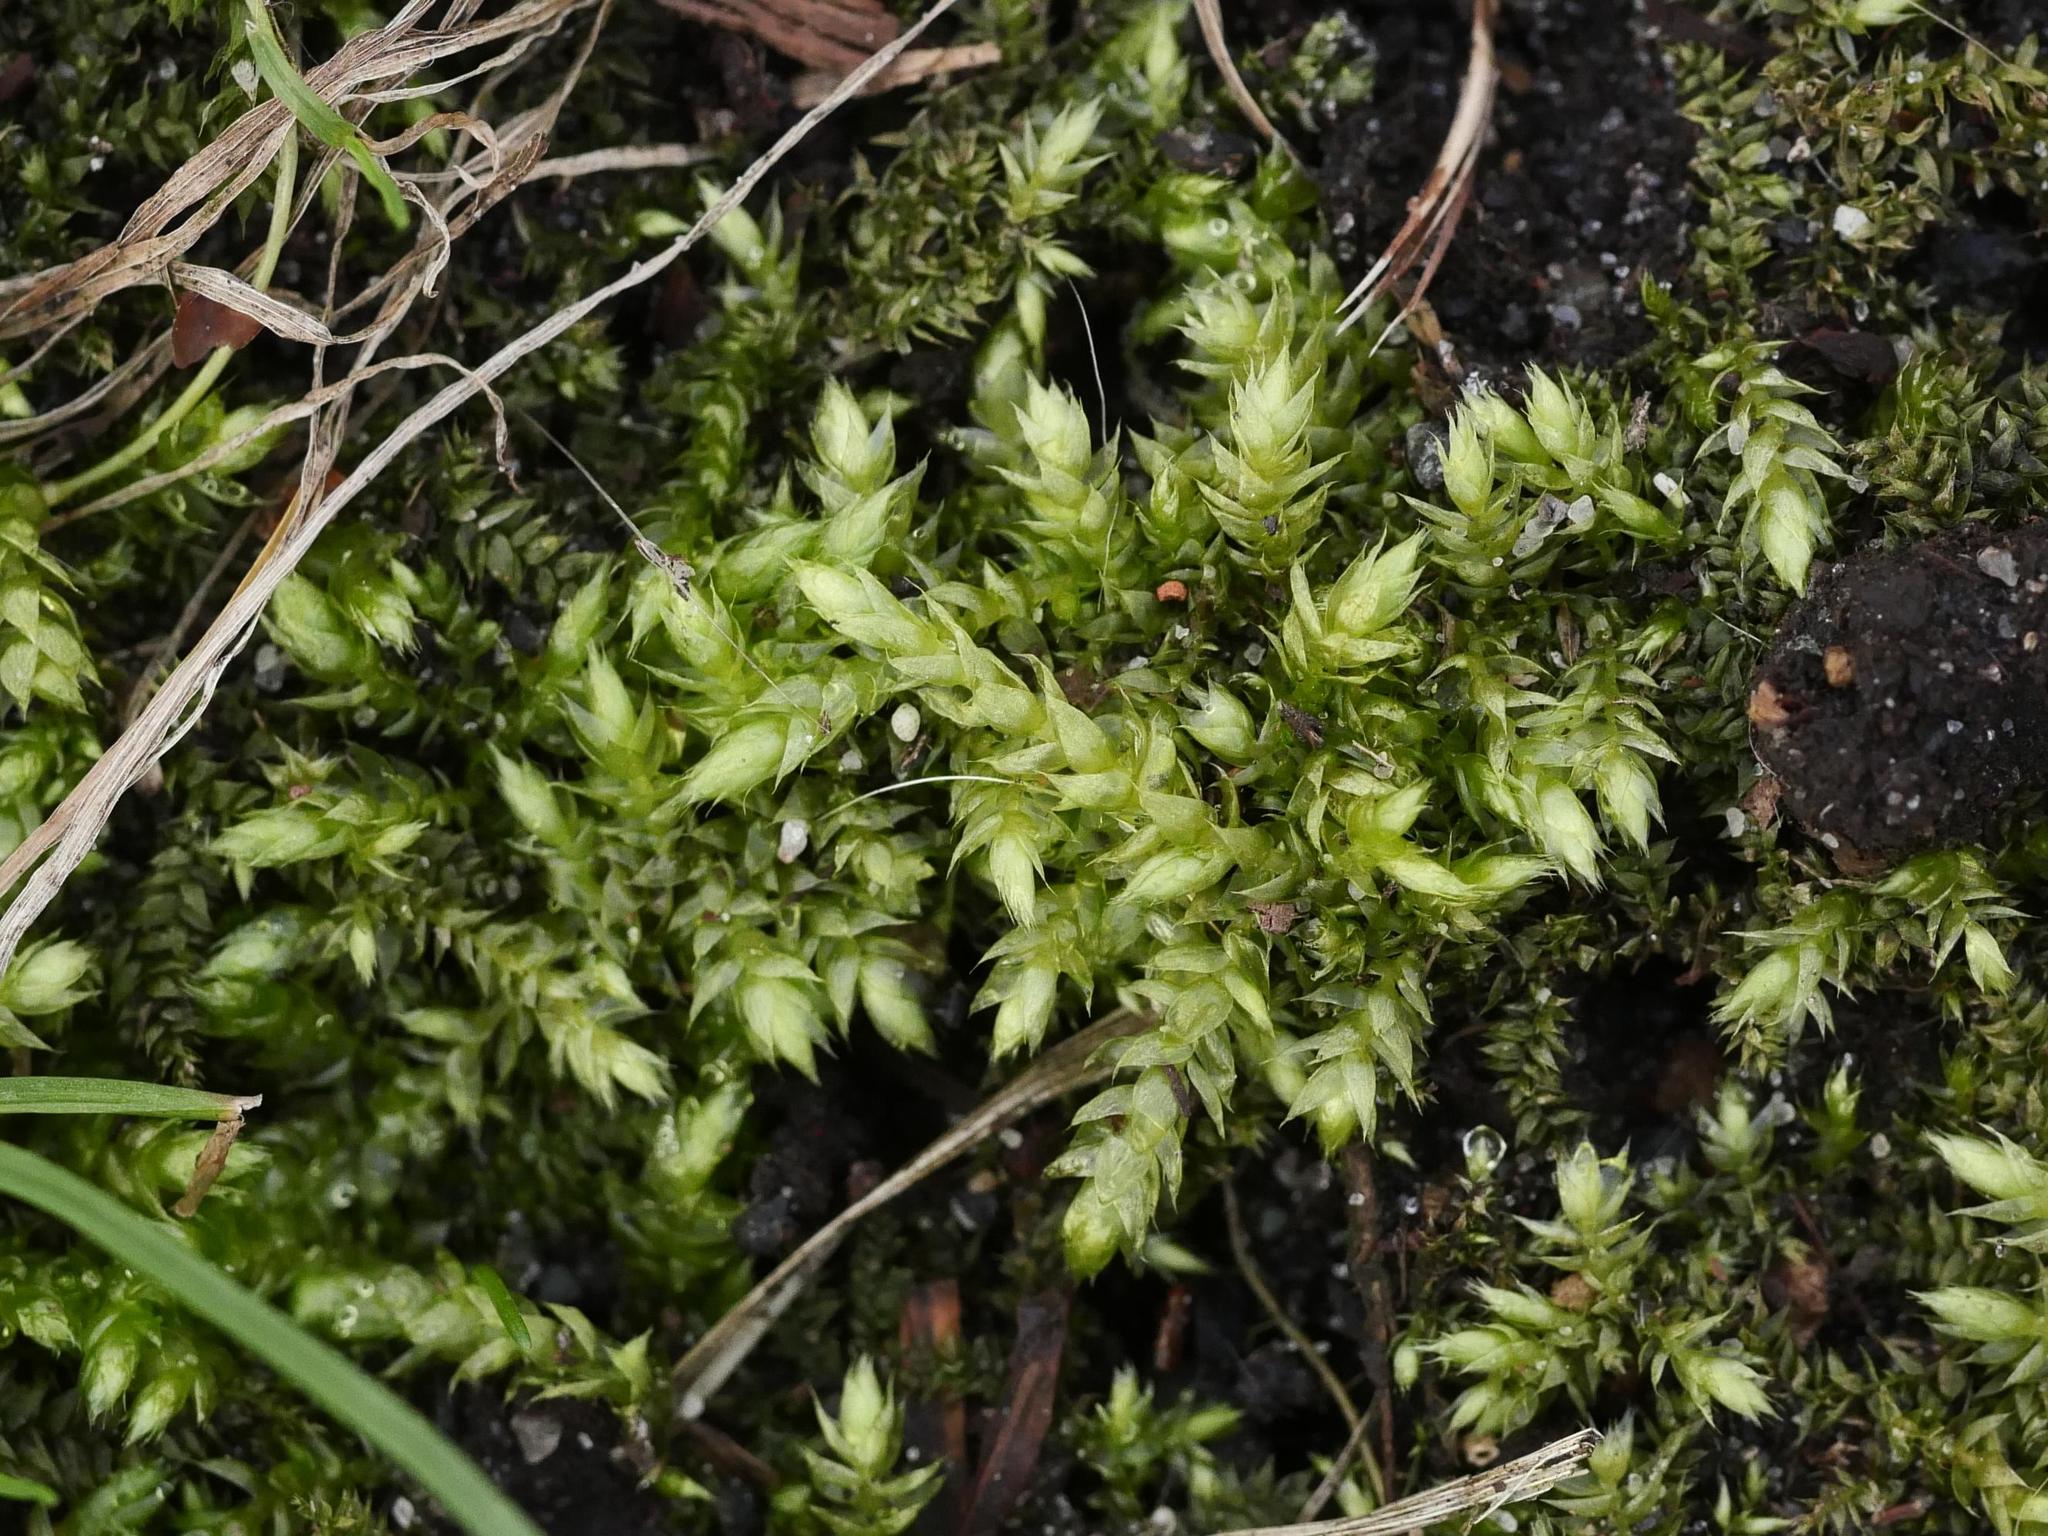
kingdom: Plantae
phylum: Bryophyta
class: Bryopsida
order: Hypnales
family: Brachytheciaceae
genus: Brachythecium
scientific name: Brachythecium rutabulum
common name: Rough-stalked feather-moss
